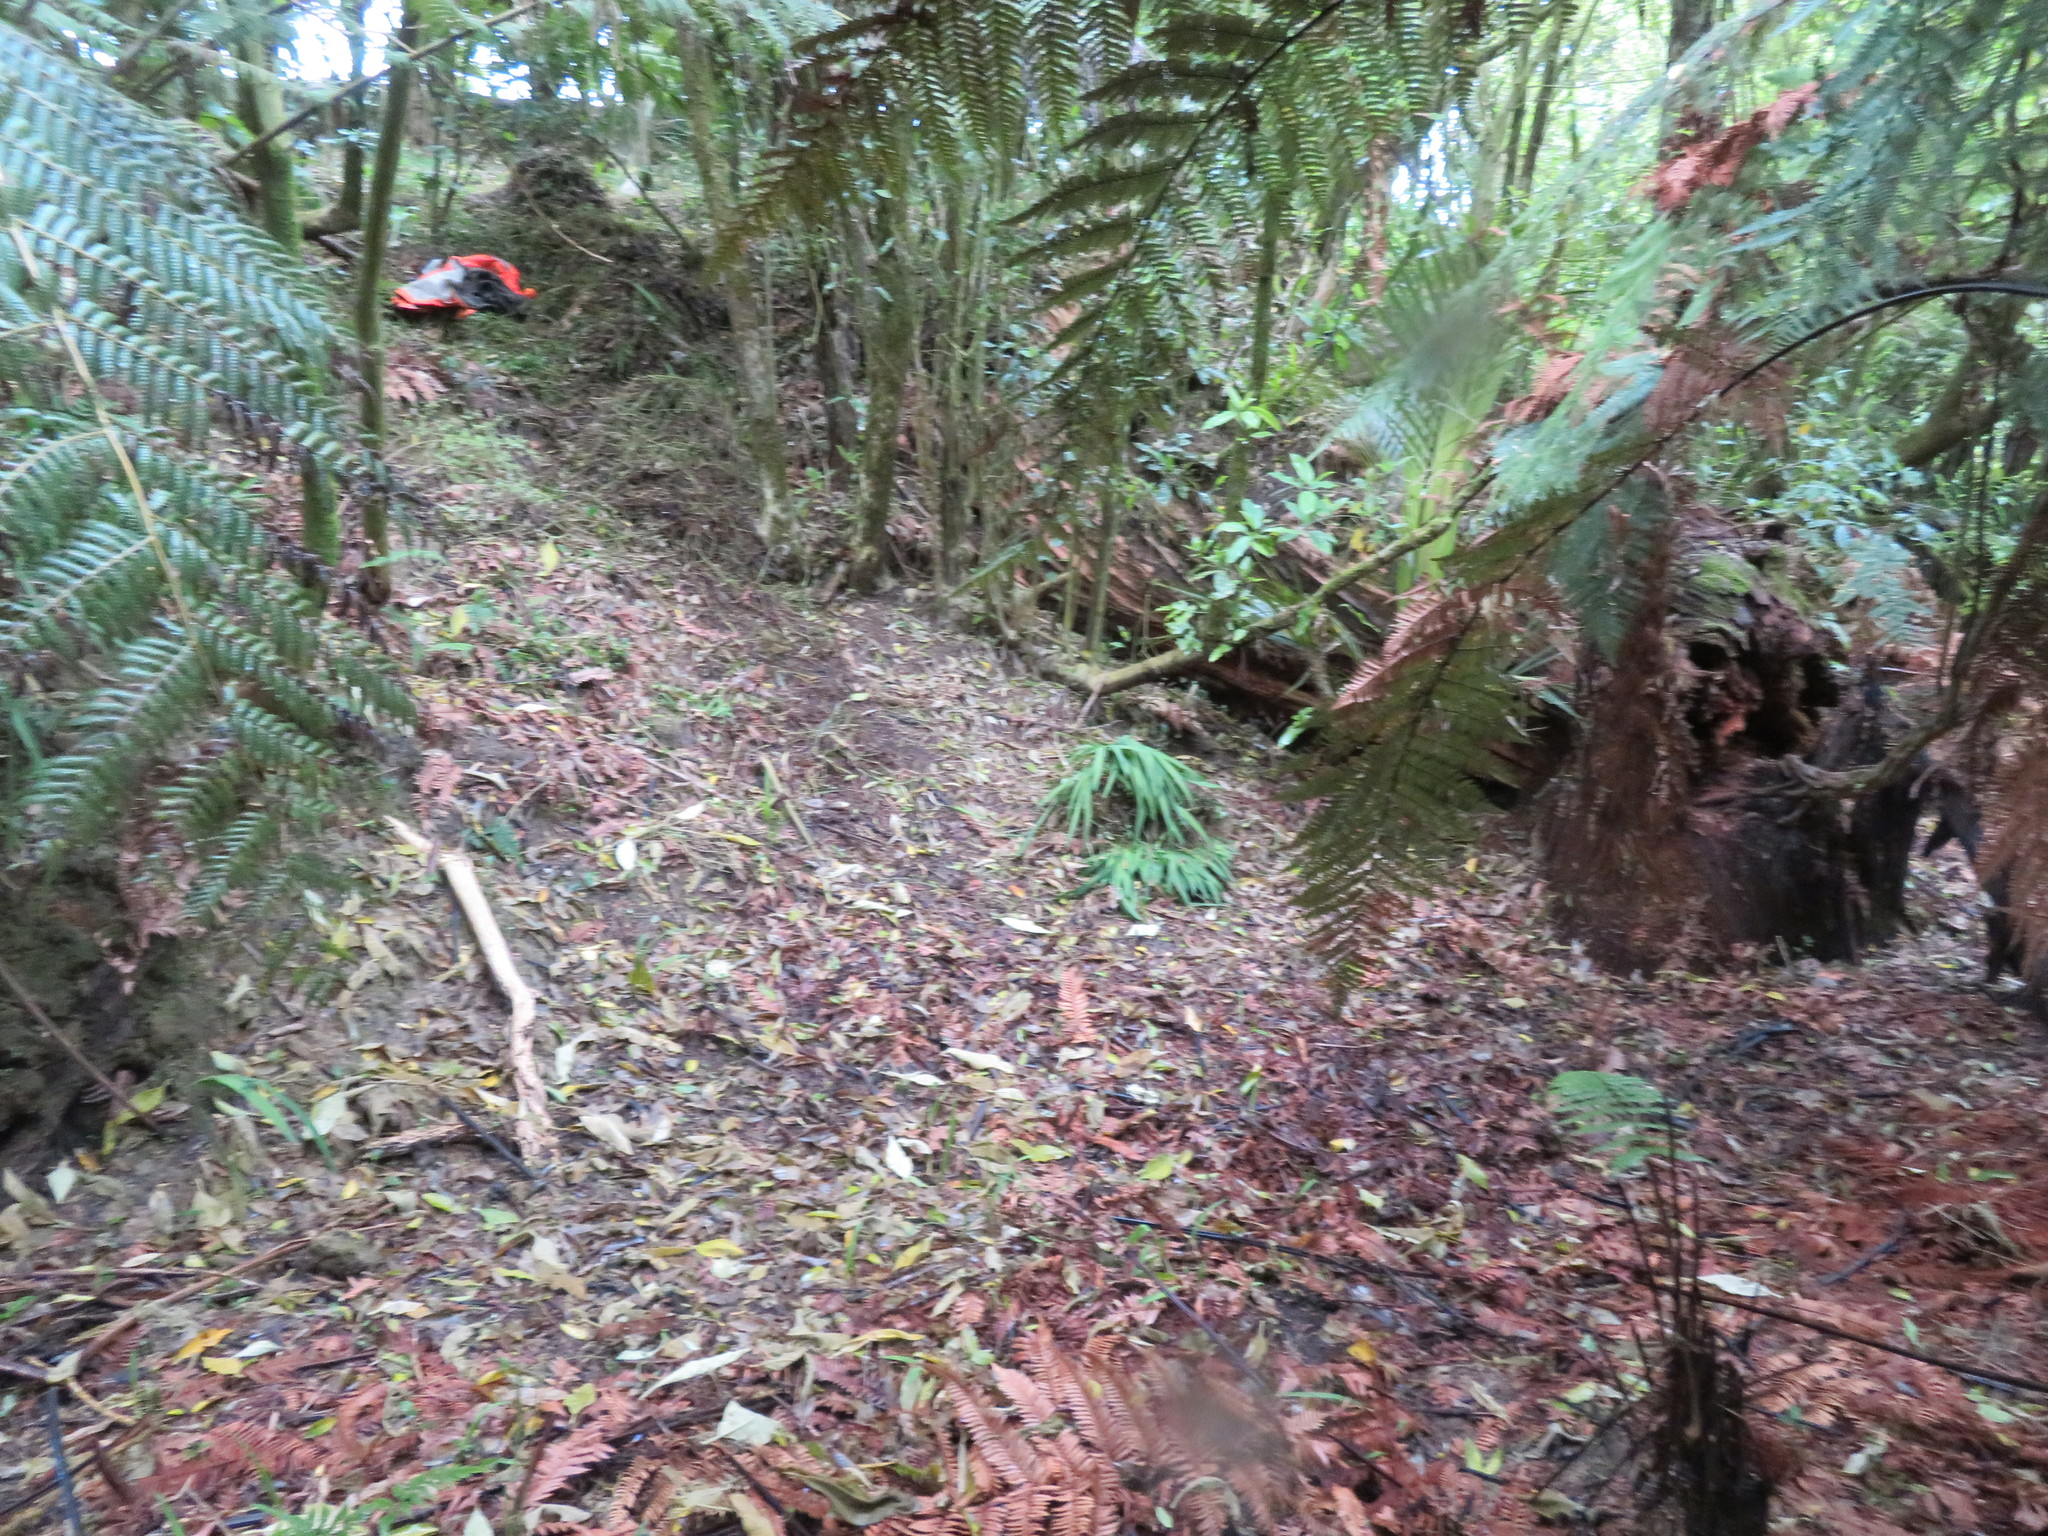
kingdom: Plantae
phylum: Tracheophyta
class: Liliopsida
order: Commelinales
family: Commelinaceae
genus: Tradescantia
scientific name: Tradescantia fluminensis
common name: Wandering-jew
